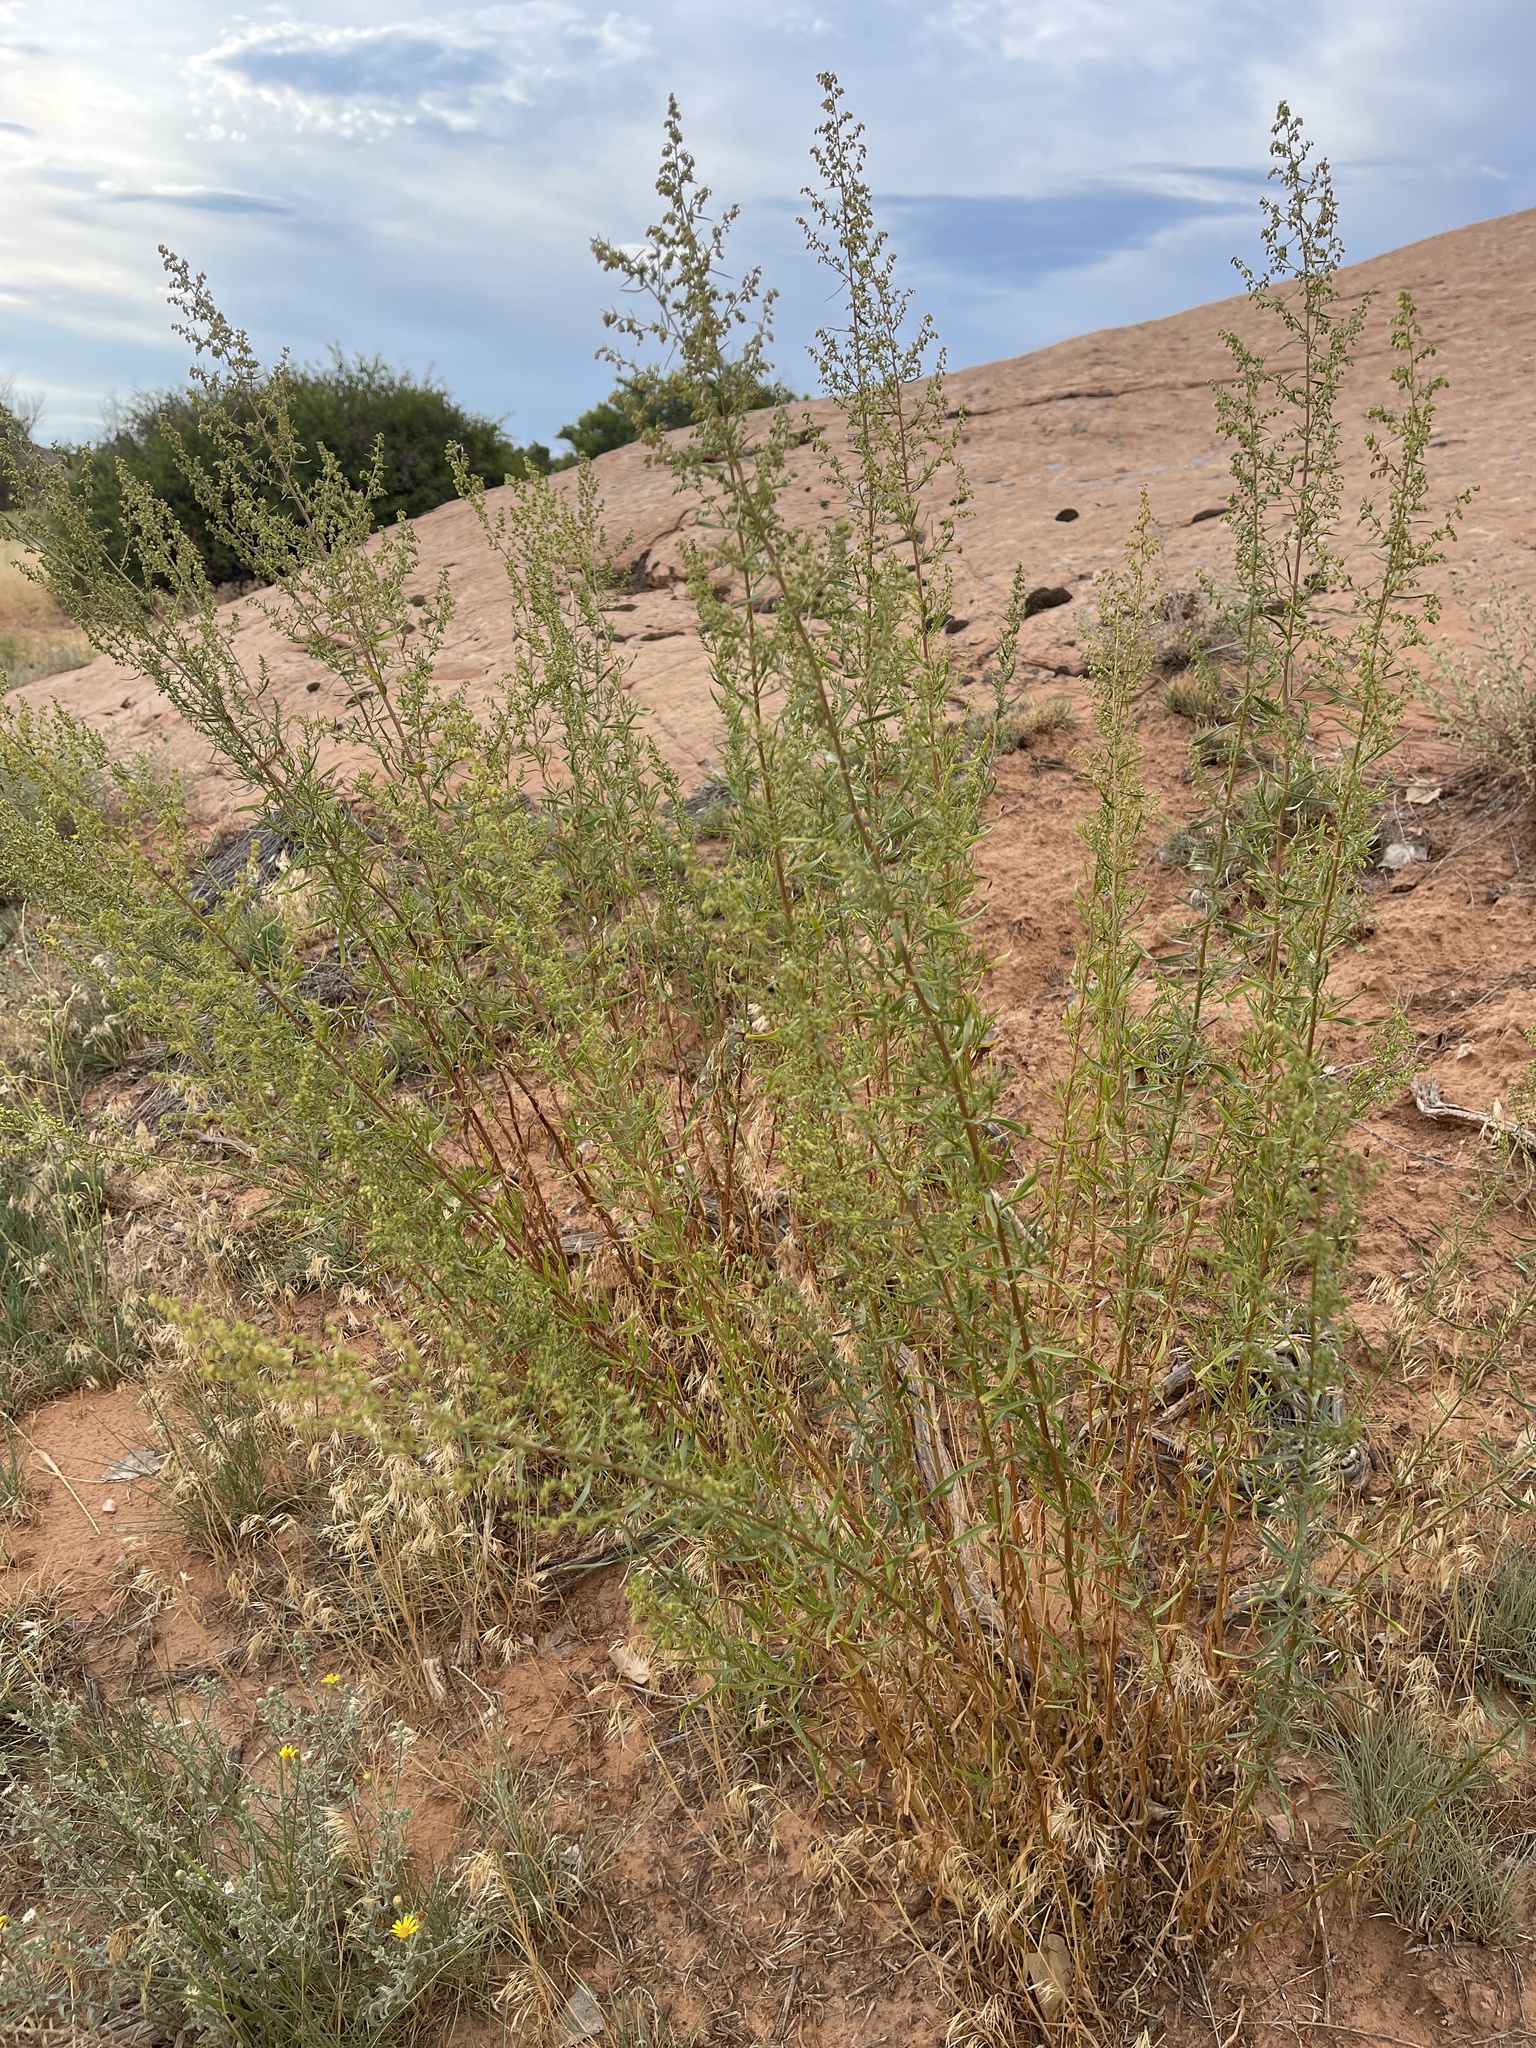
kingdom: Plantae
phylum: Tracheophyta
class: Magnoliopsida
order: Asterales
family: Asteraceae
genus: Artemisia
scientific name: Artemisia dracunculus
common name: Tarragon
